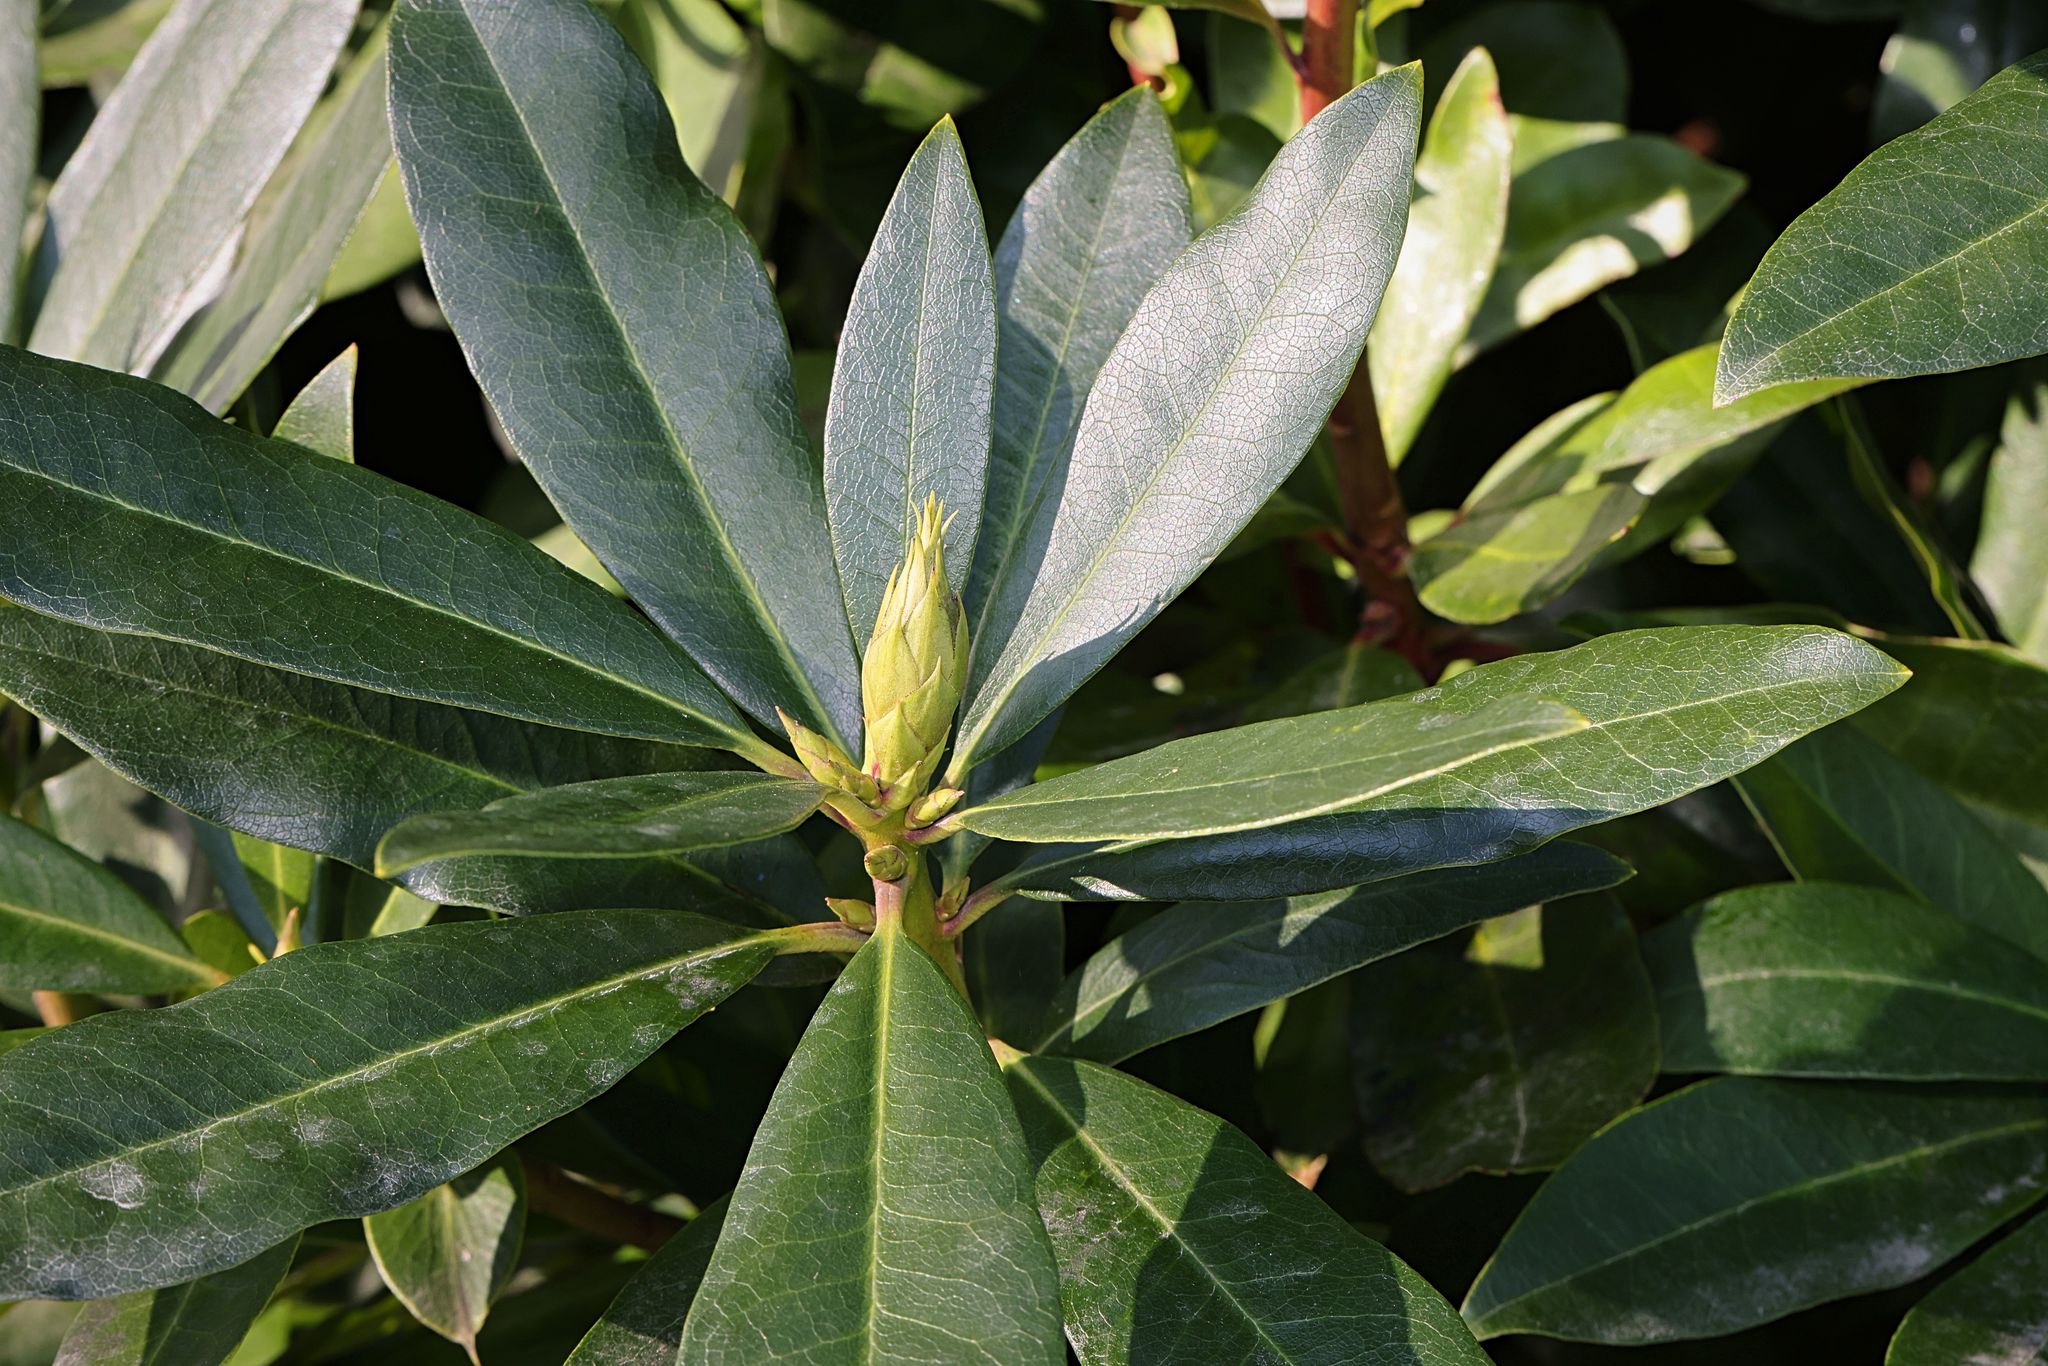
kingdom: Plantae
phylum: Tracheophyta
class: Magnoliopsida
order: Ericales
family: Ericaceae
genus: Rhododendron
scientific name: Rhododendron ponticum
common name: Rhododendron
